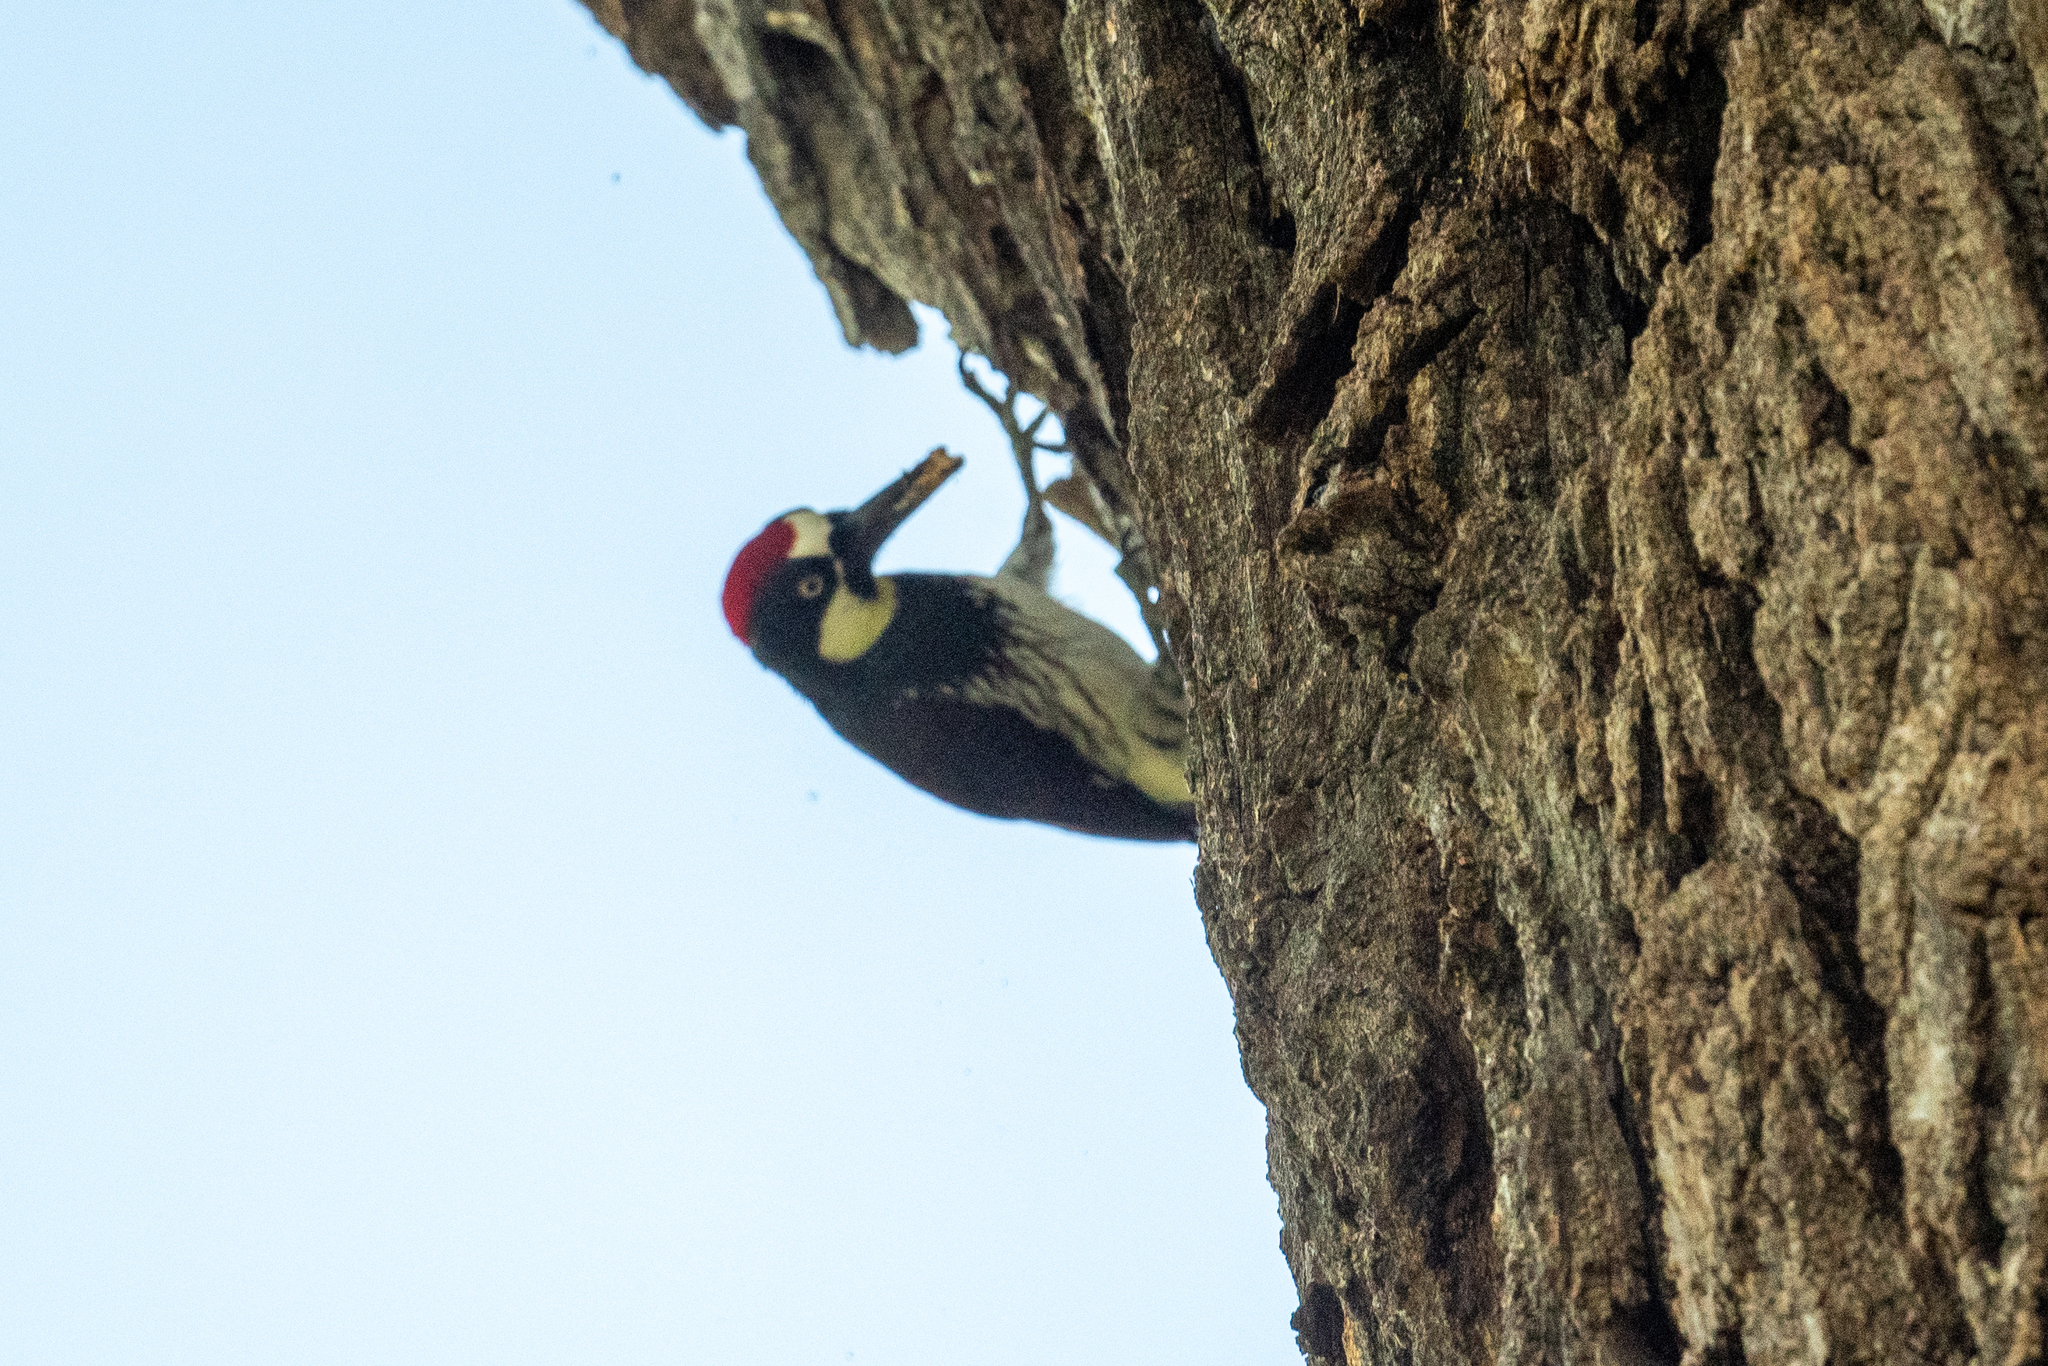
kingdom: Animalia
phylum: Chordata
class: Aves
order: Piciformes
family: Picidae
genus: Melanerpes
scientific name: Melanerpes formicivorus
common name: Acorn woodpecker
